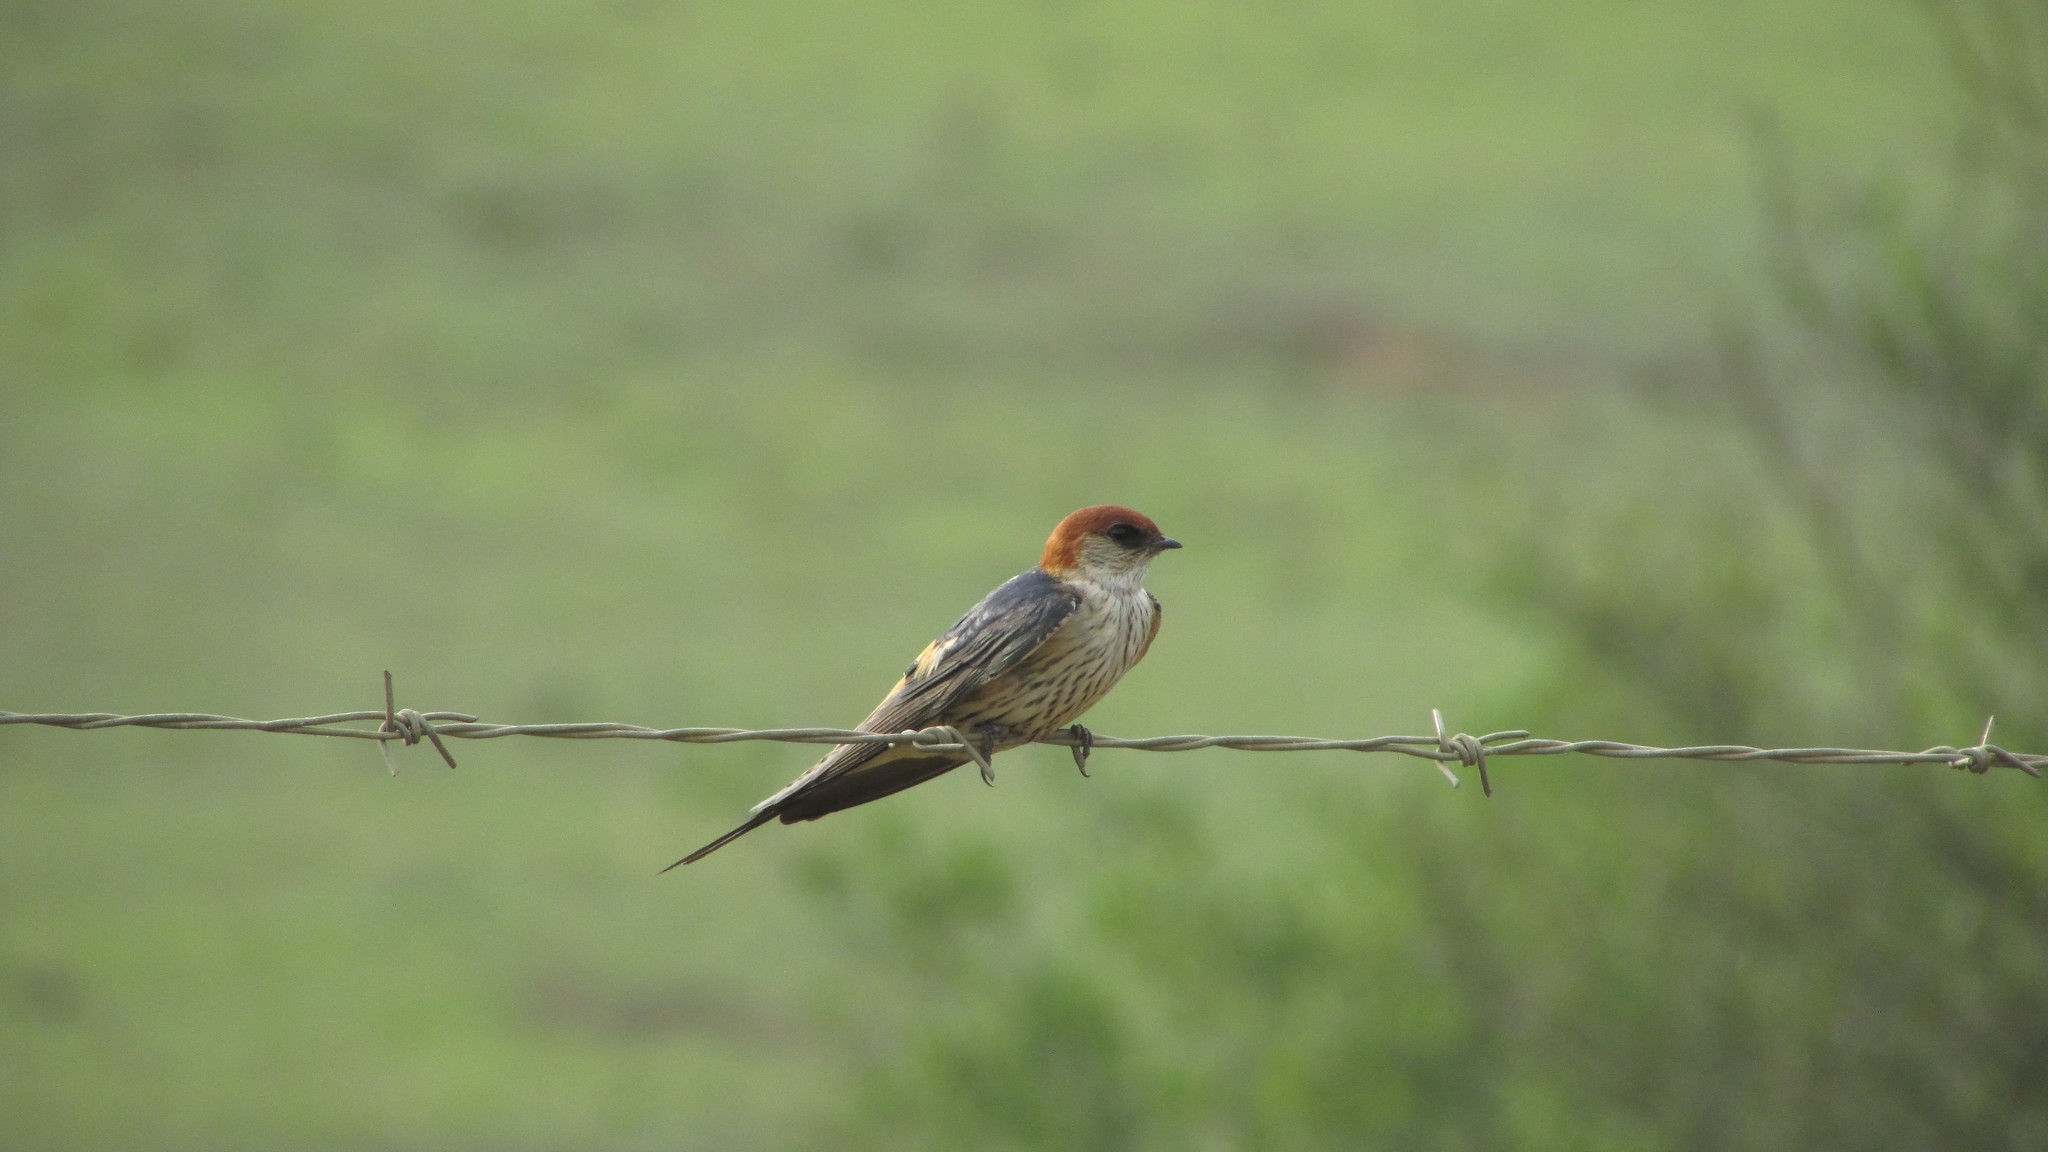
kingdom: Animalia
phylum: Chordata
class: Aves
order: Passeriformes
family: Hirundinidae
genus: Cecropis
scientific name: Cecropis cucullata
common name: Greater striped-swallow
